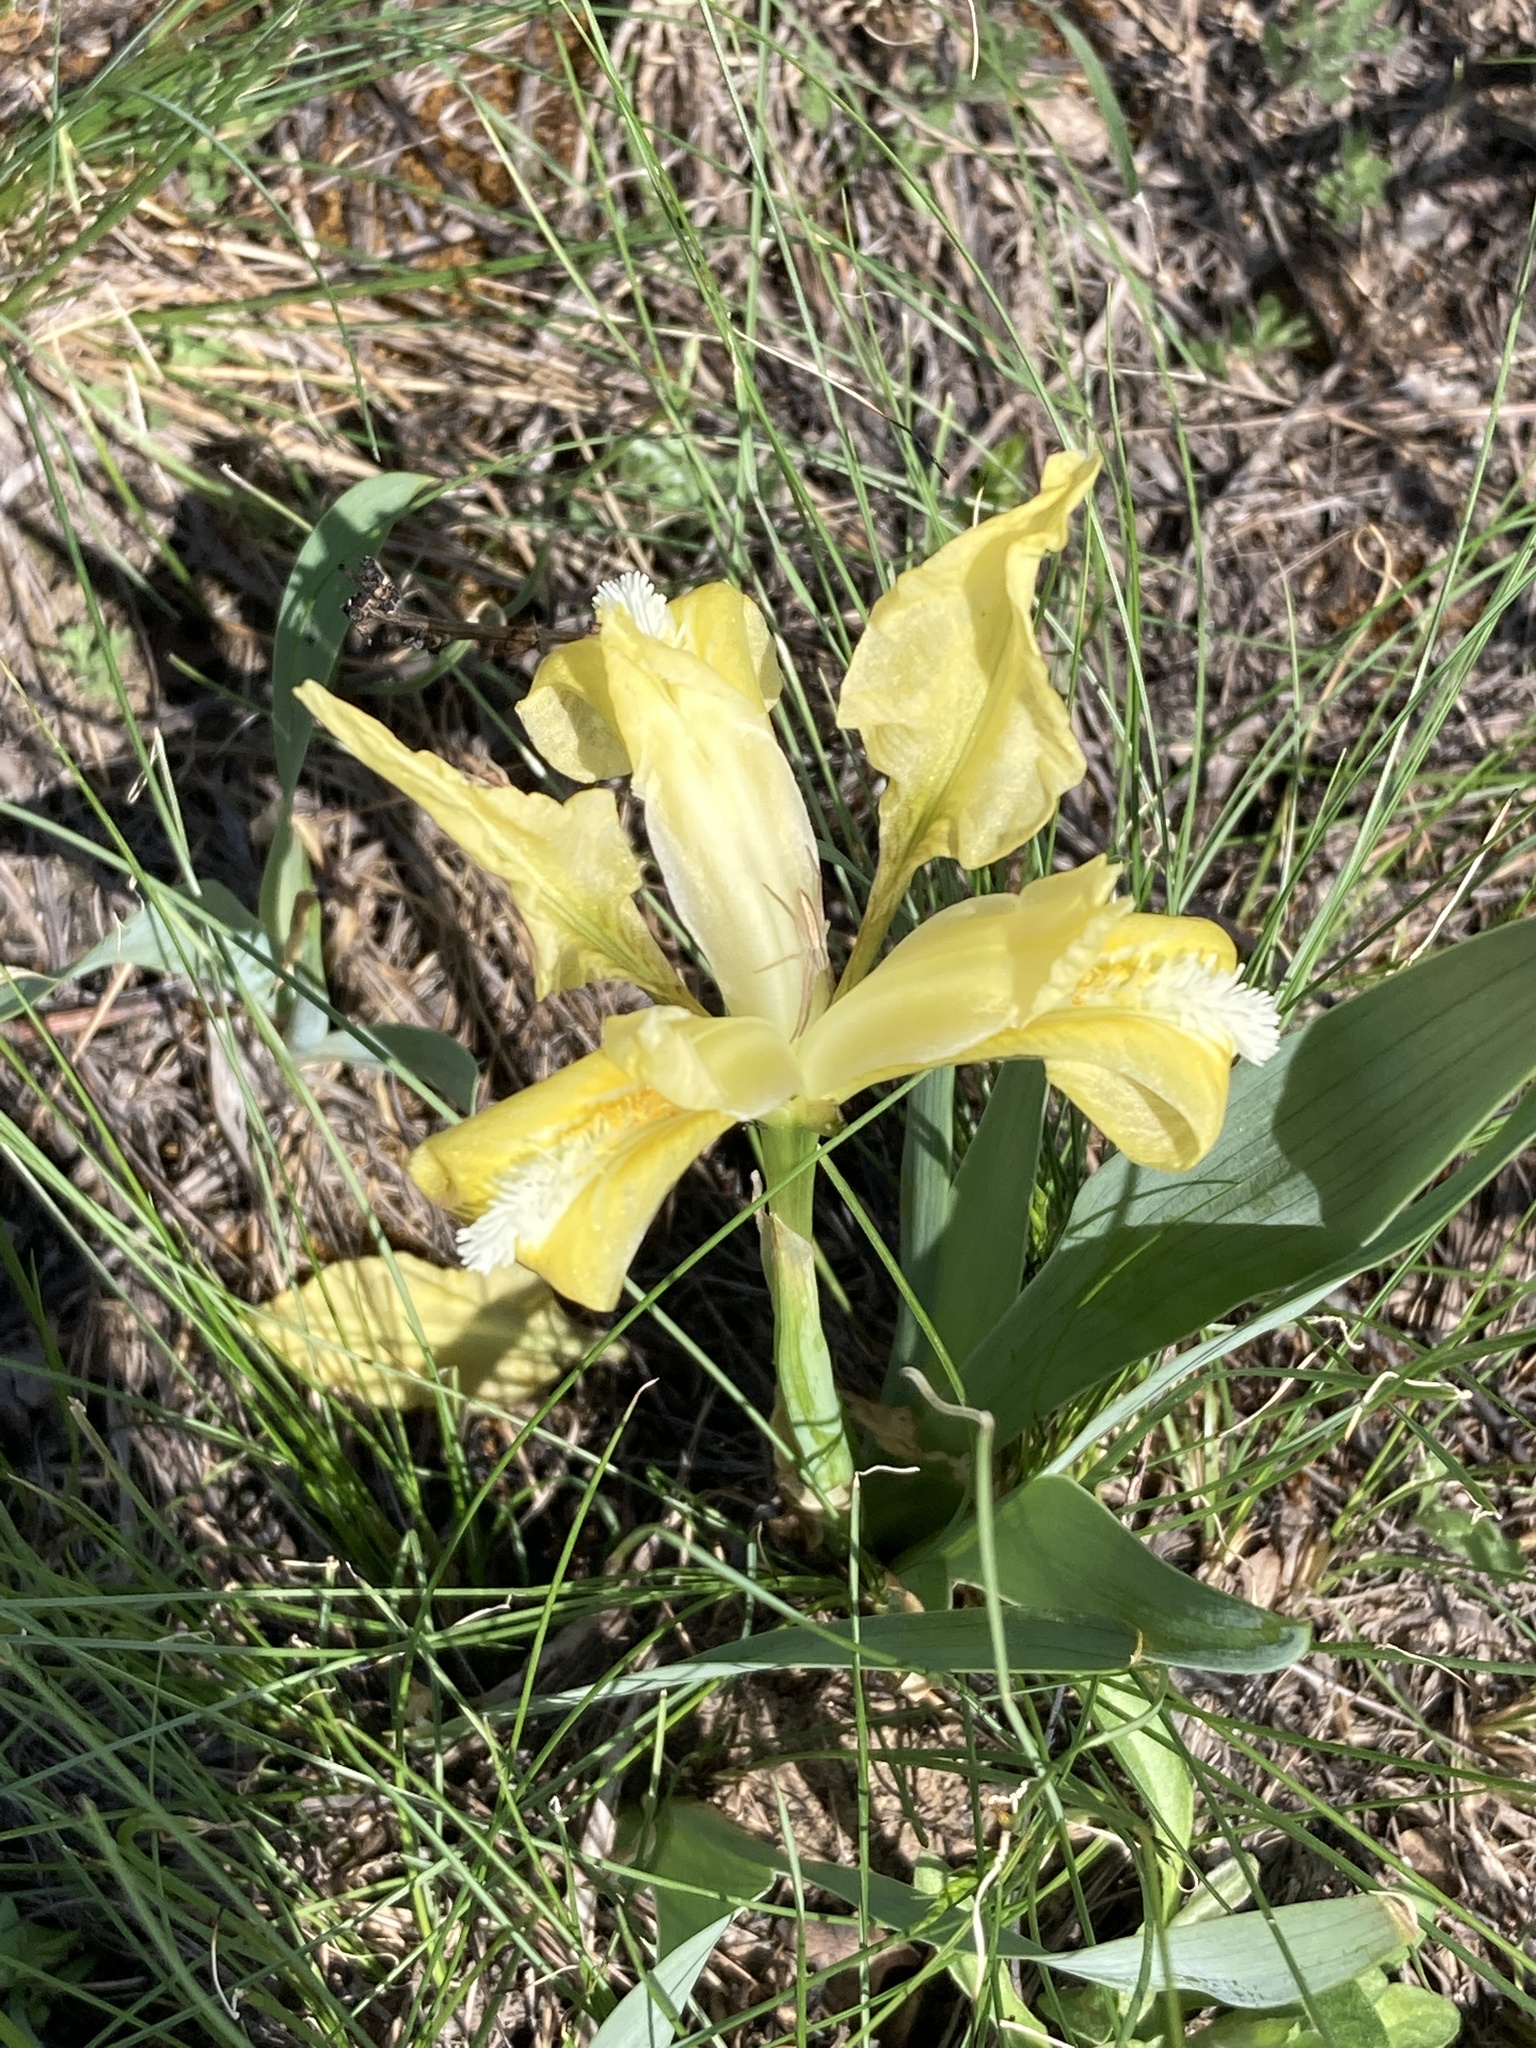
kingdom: Plantae
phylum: Tracheophyta
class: Liliopsida
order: Asparagales
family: Iridaceae
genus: Iris
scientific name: Iris pumila
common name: Dwarf iris
